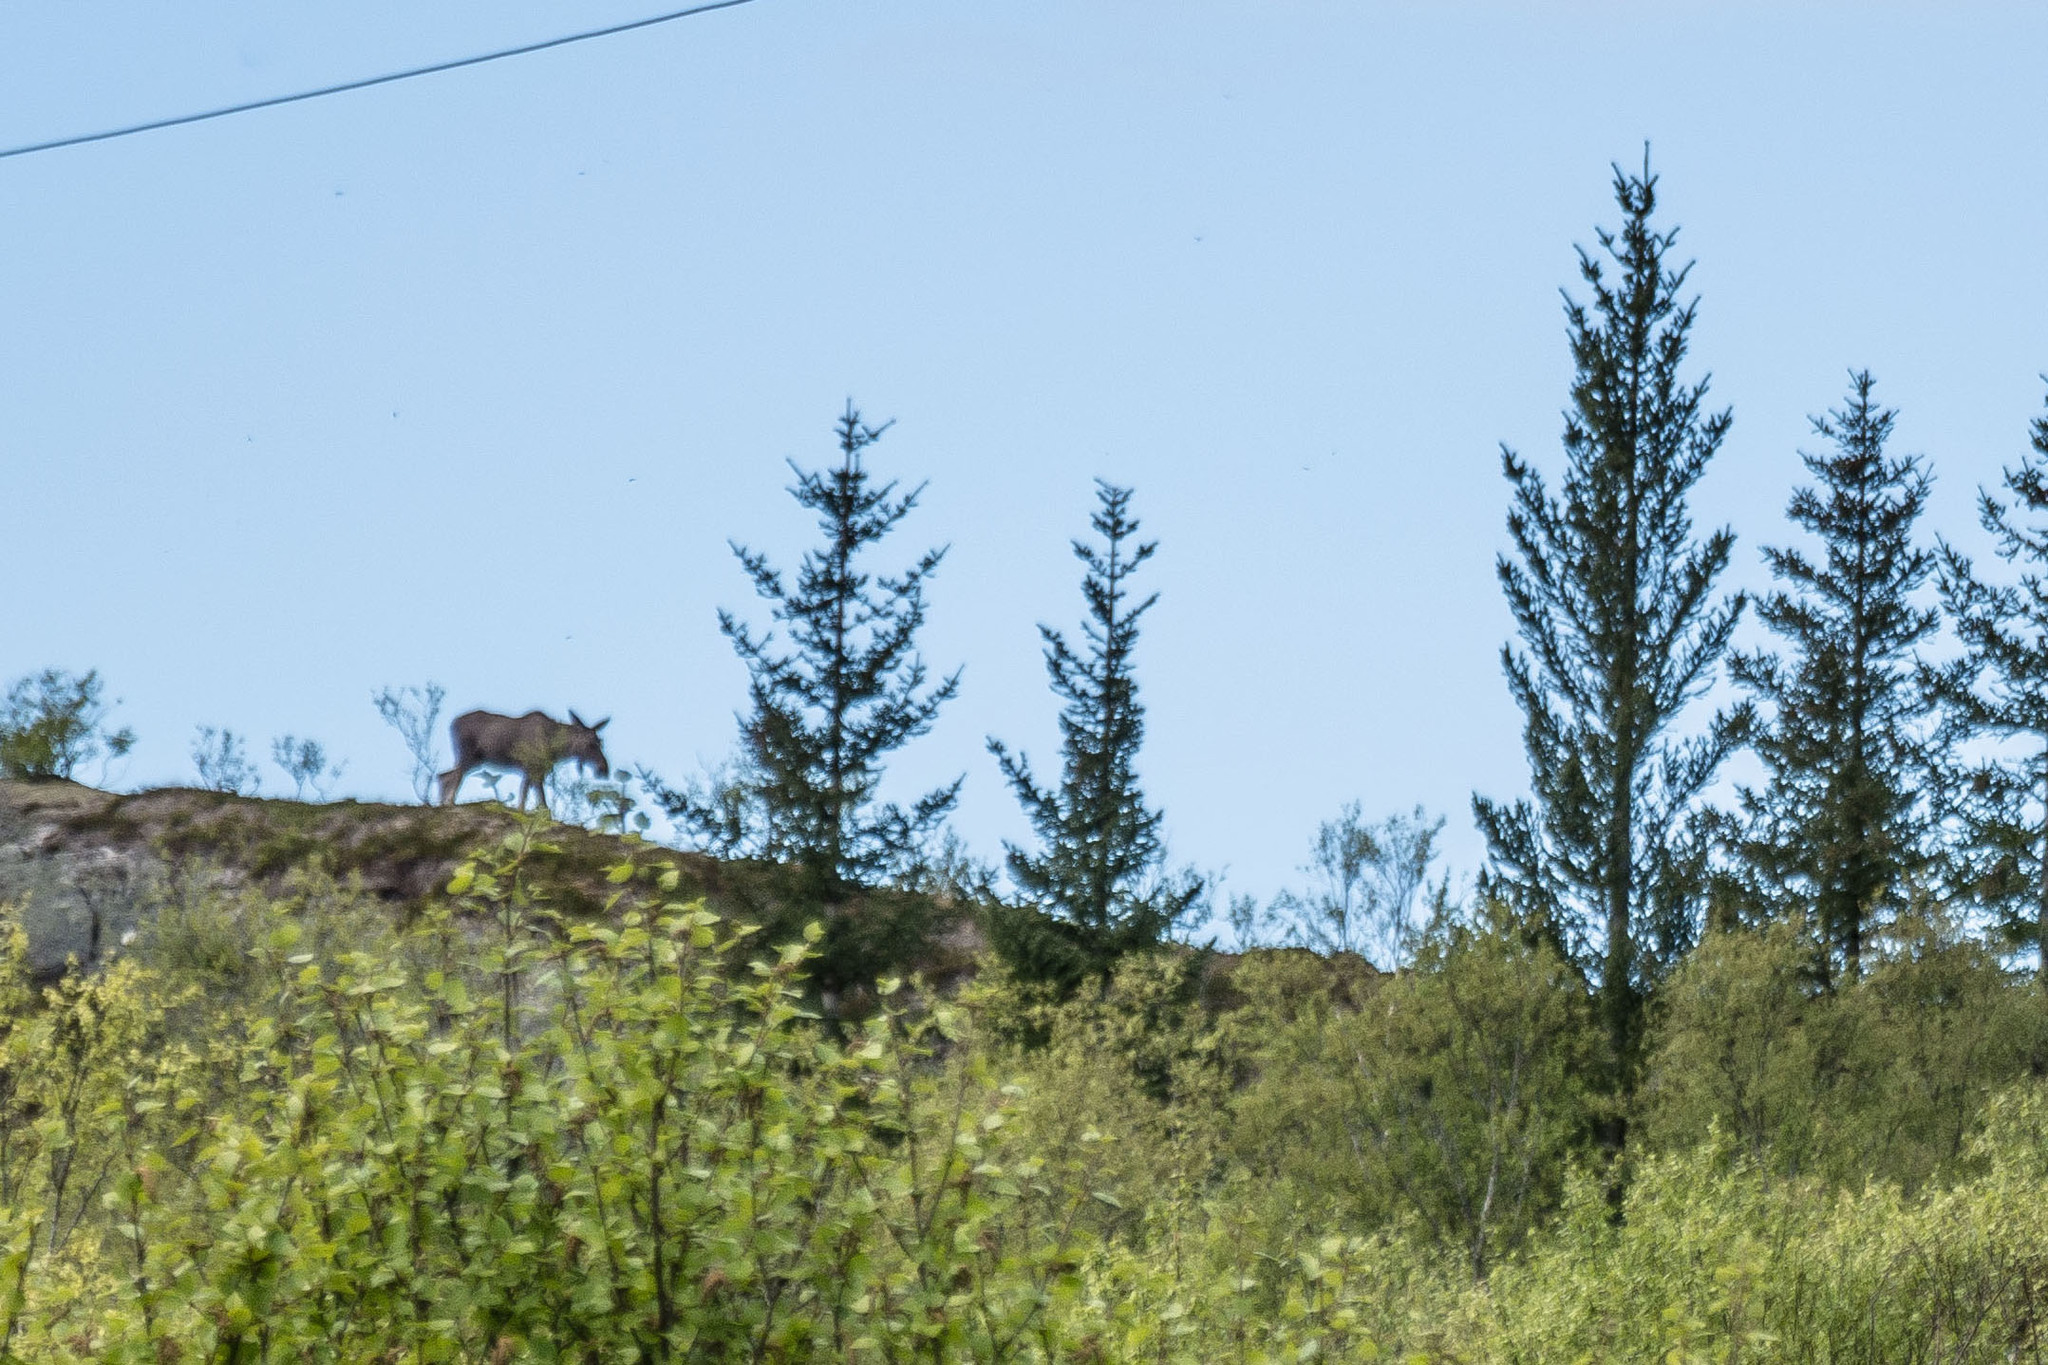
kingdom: Animalia
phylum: Chordata
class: Mammalia
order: Artiodactyla
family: Cervidae
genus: Alces
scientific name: Alces alces
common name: Moose
